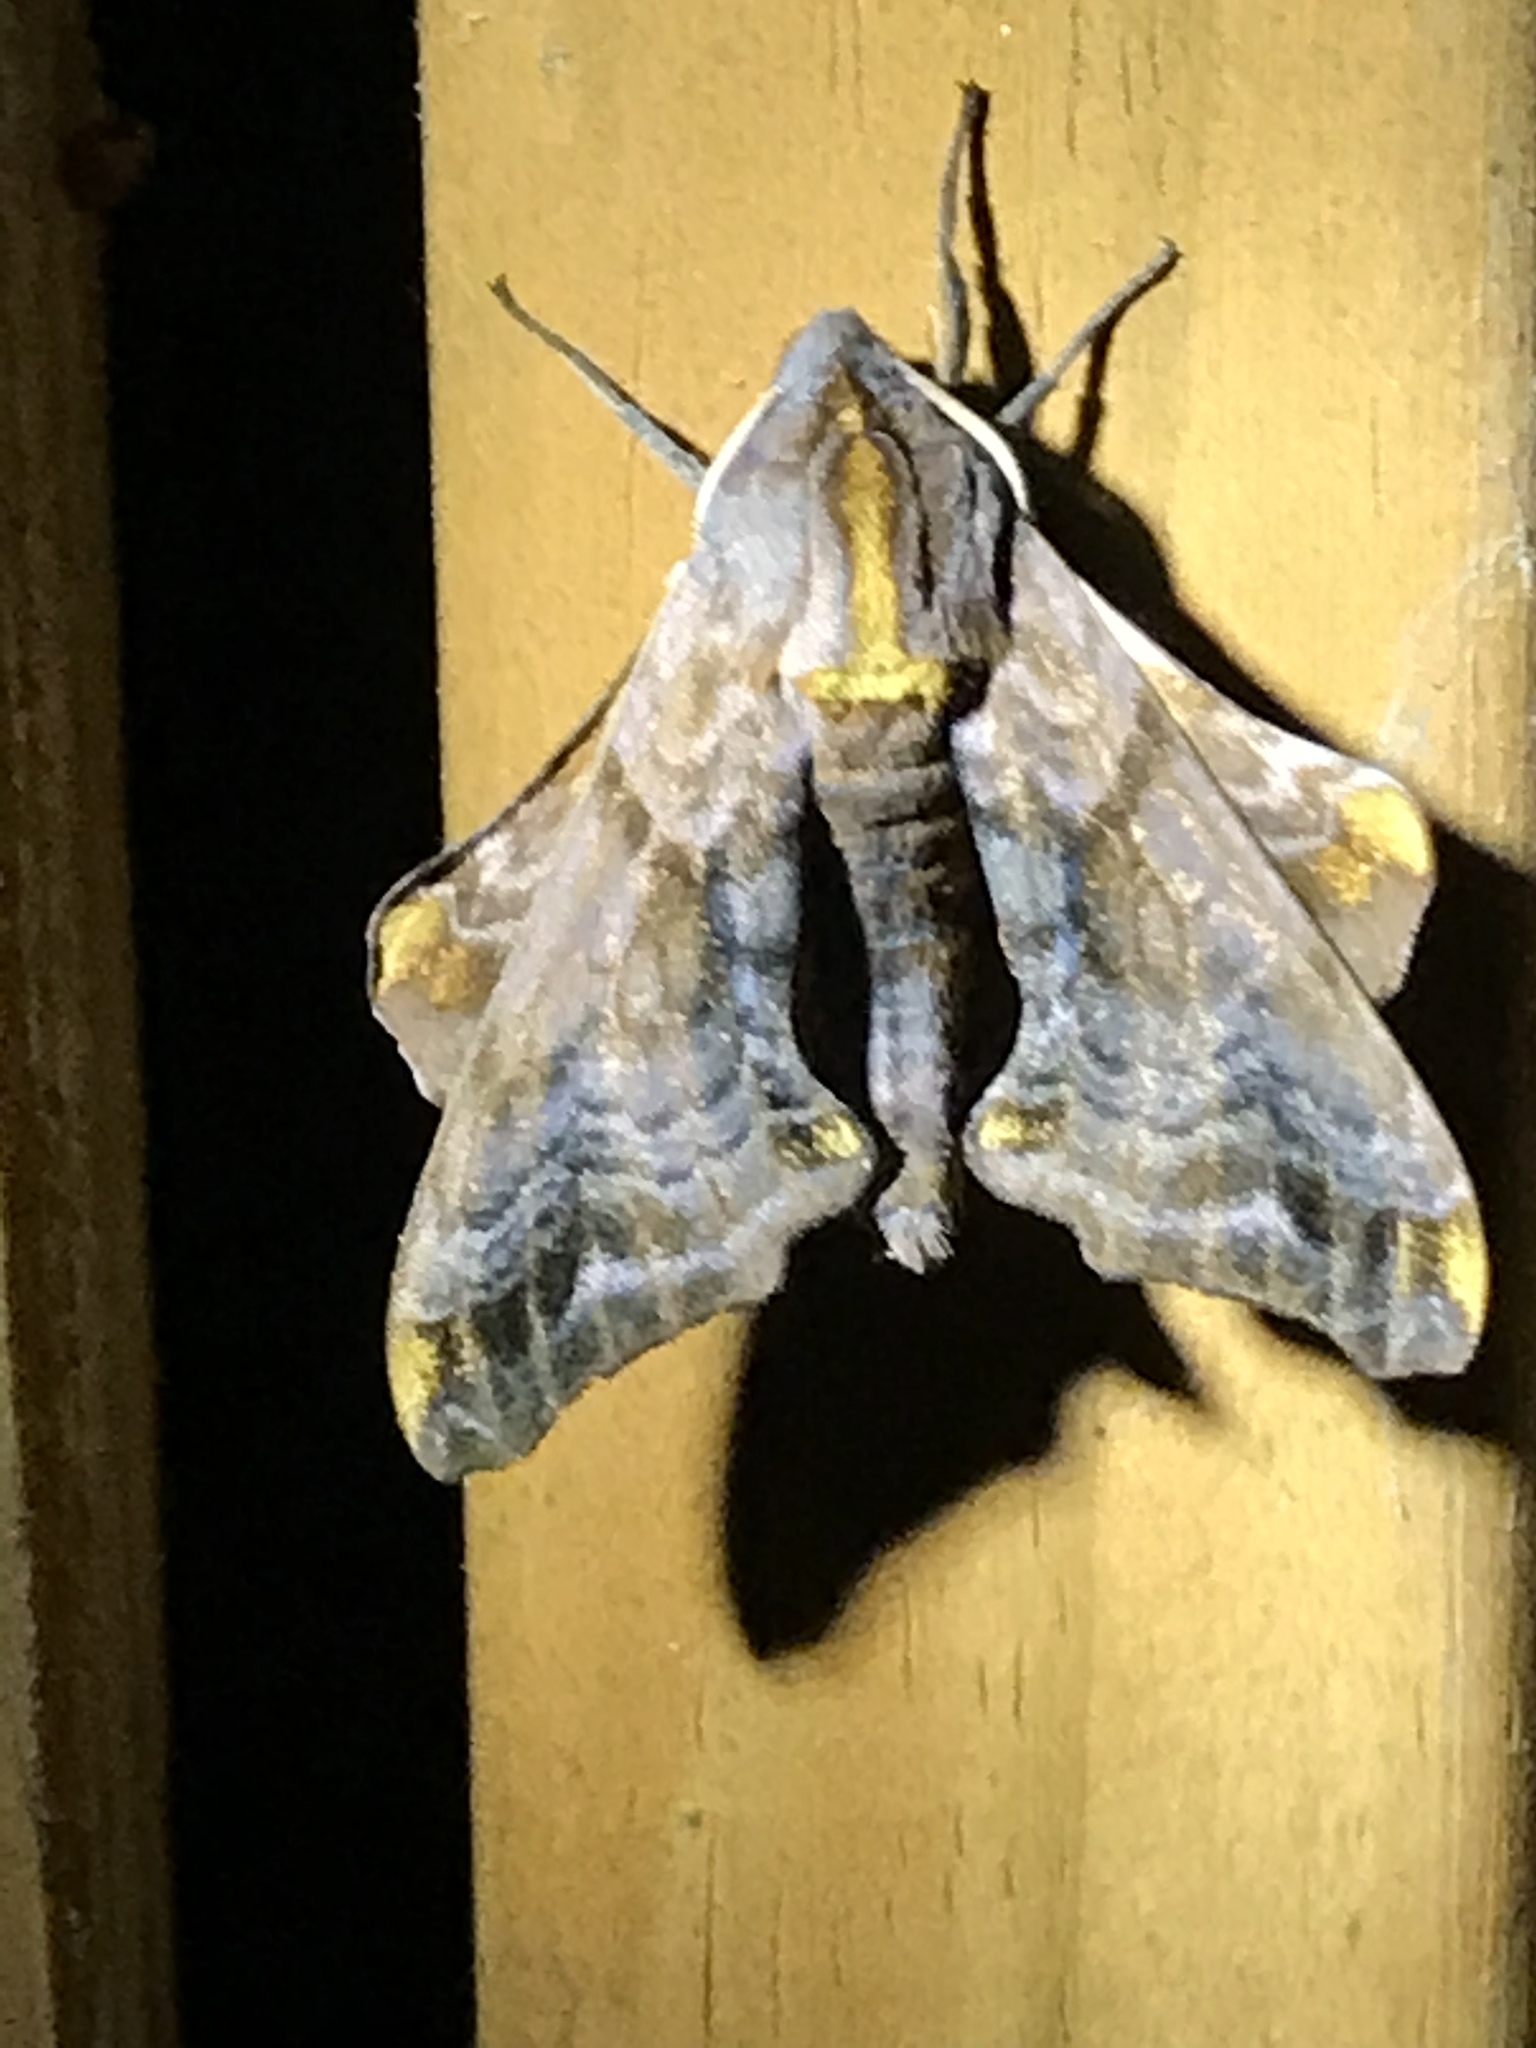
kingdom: Animalia
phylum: Arthropoda
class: Insecta
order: Lepidoptera
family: Sphingidae
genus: Paonias
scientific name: Paonias myops
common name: Small-eyed sphinx
